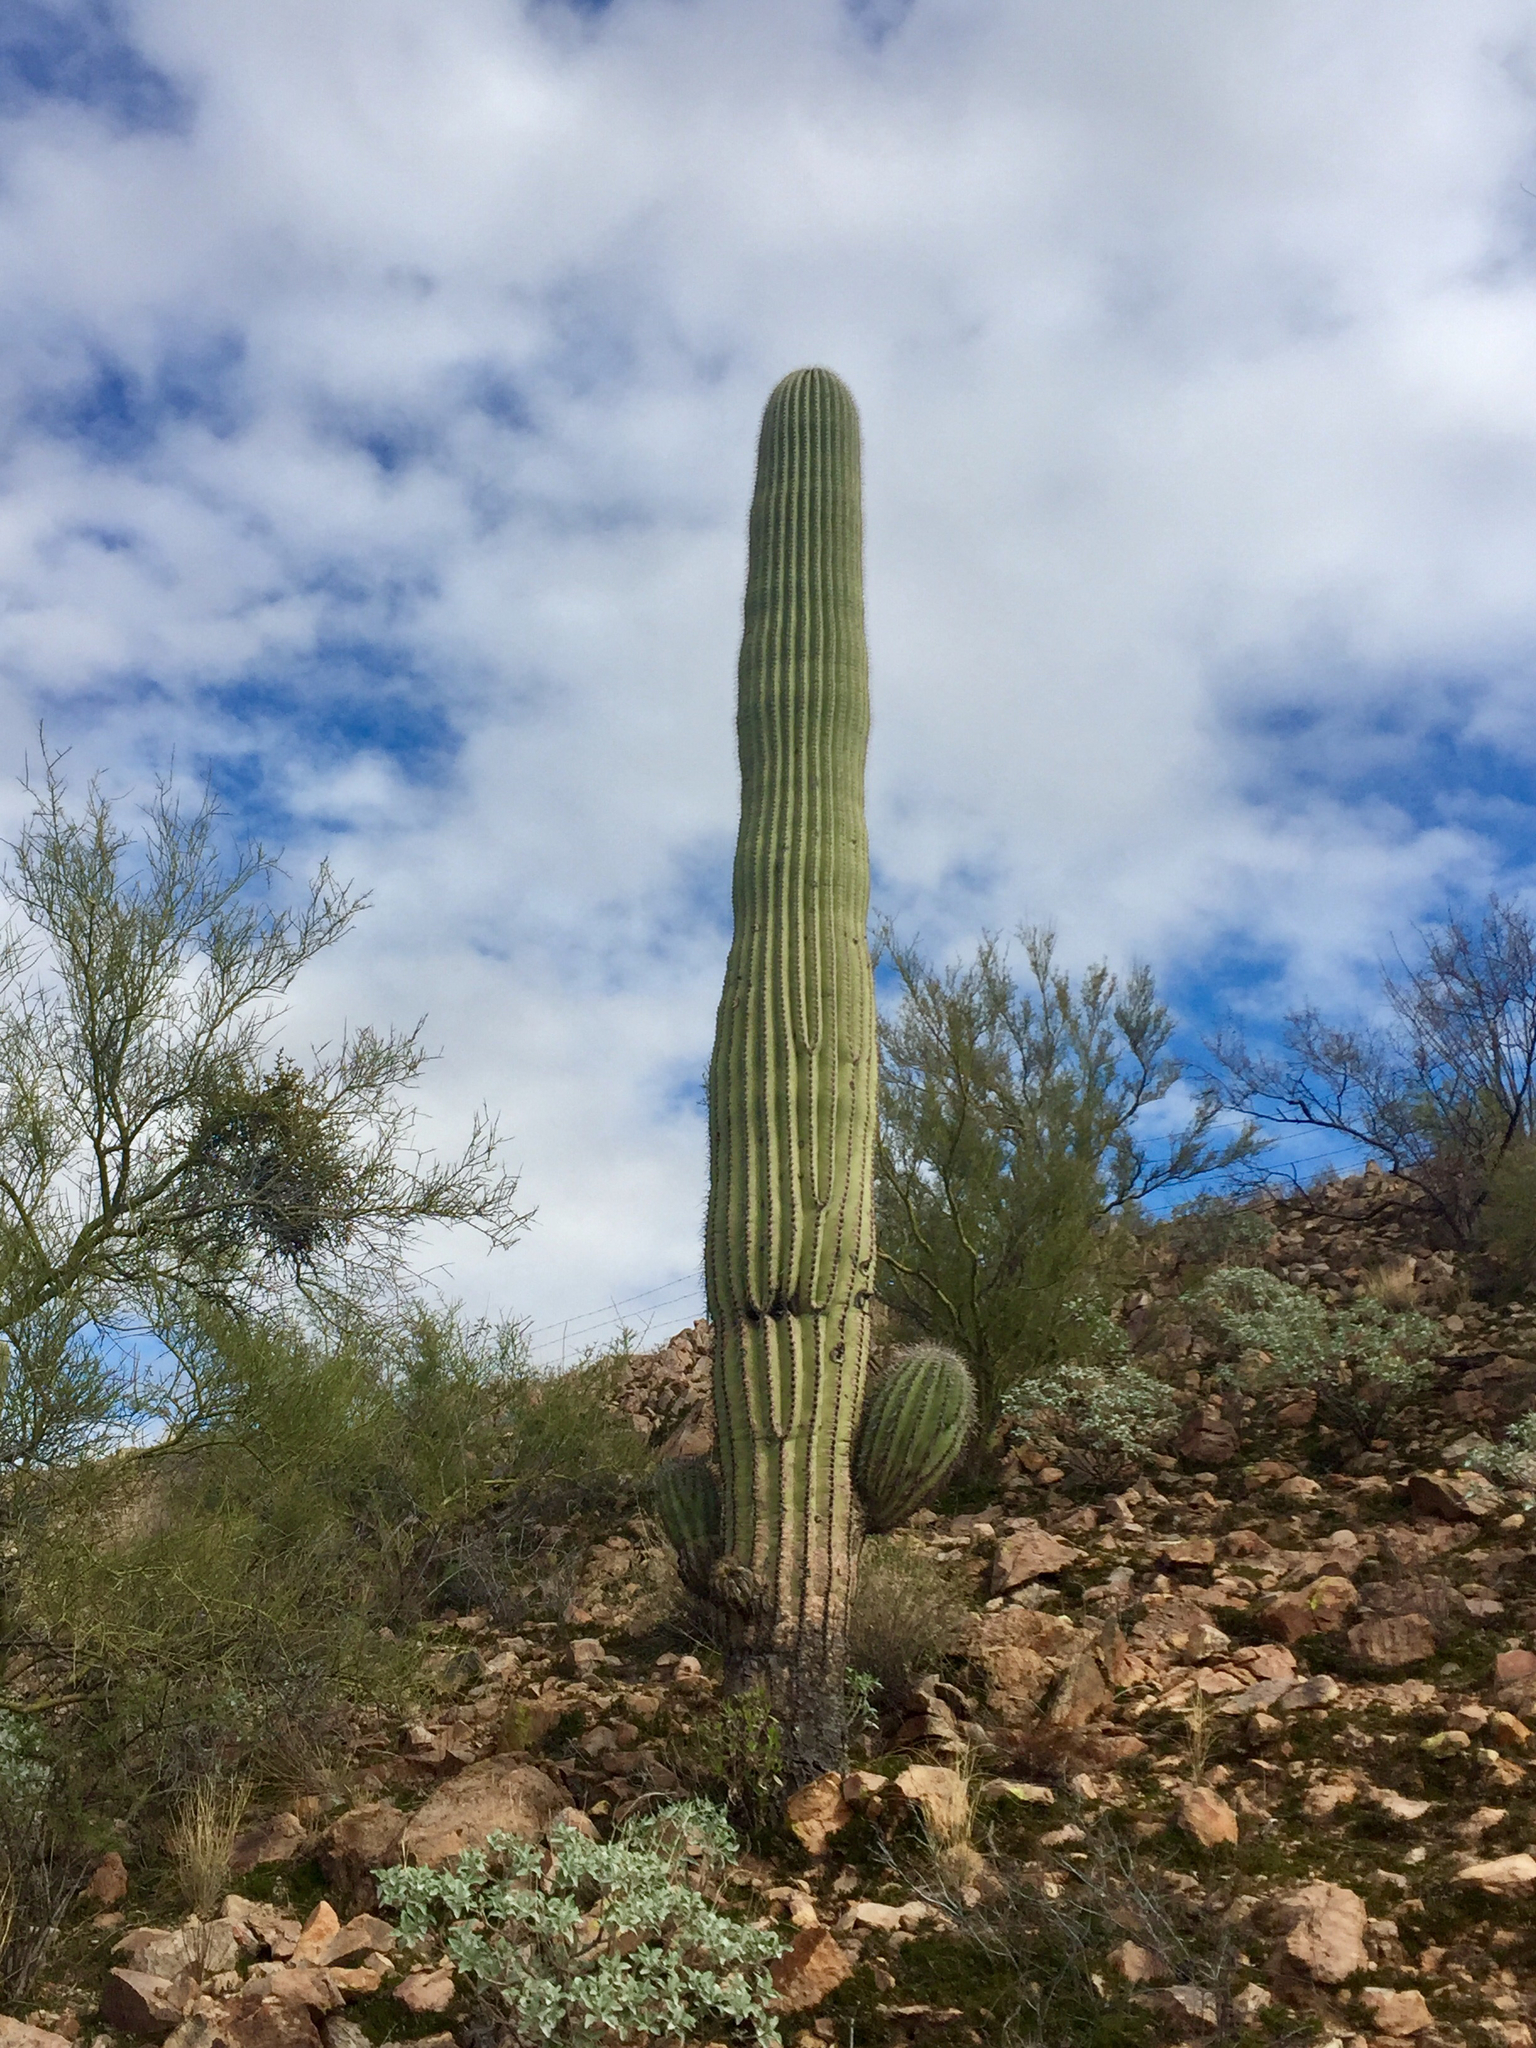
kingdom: Plantae
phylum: Tracheophyta
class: Magnoliopsida
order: Caryophyllales
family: Cactaceae
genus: Carnegiea
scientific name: Carnegiea gigantea
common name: Saguaro
